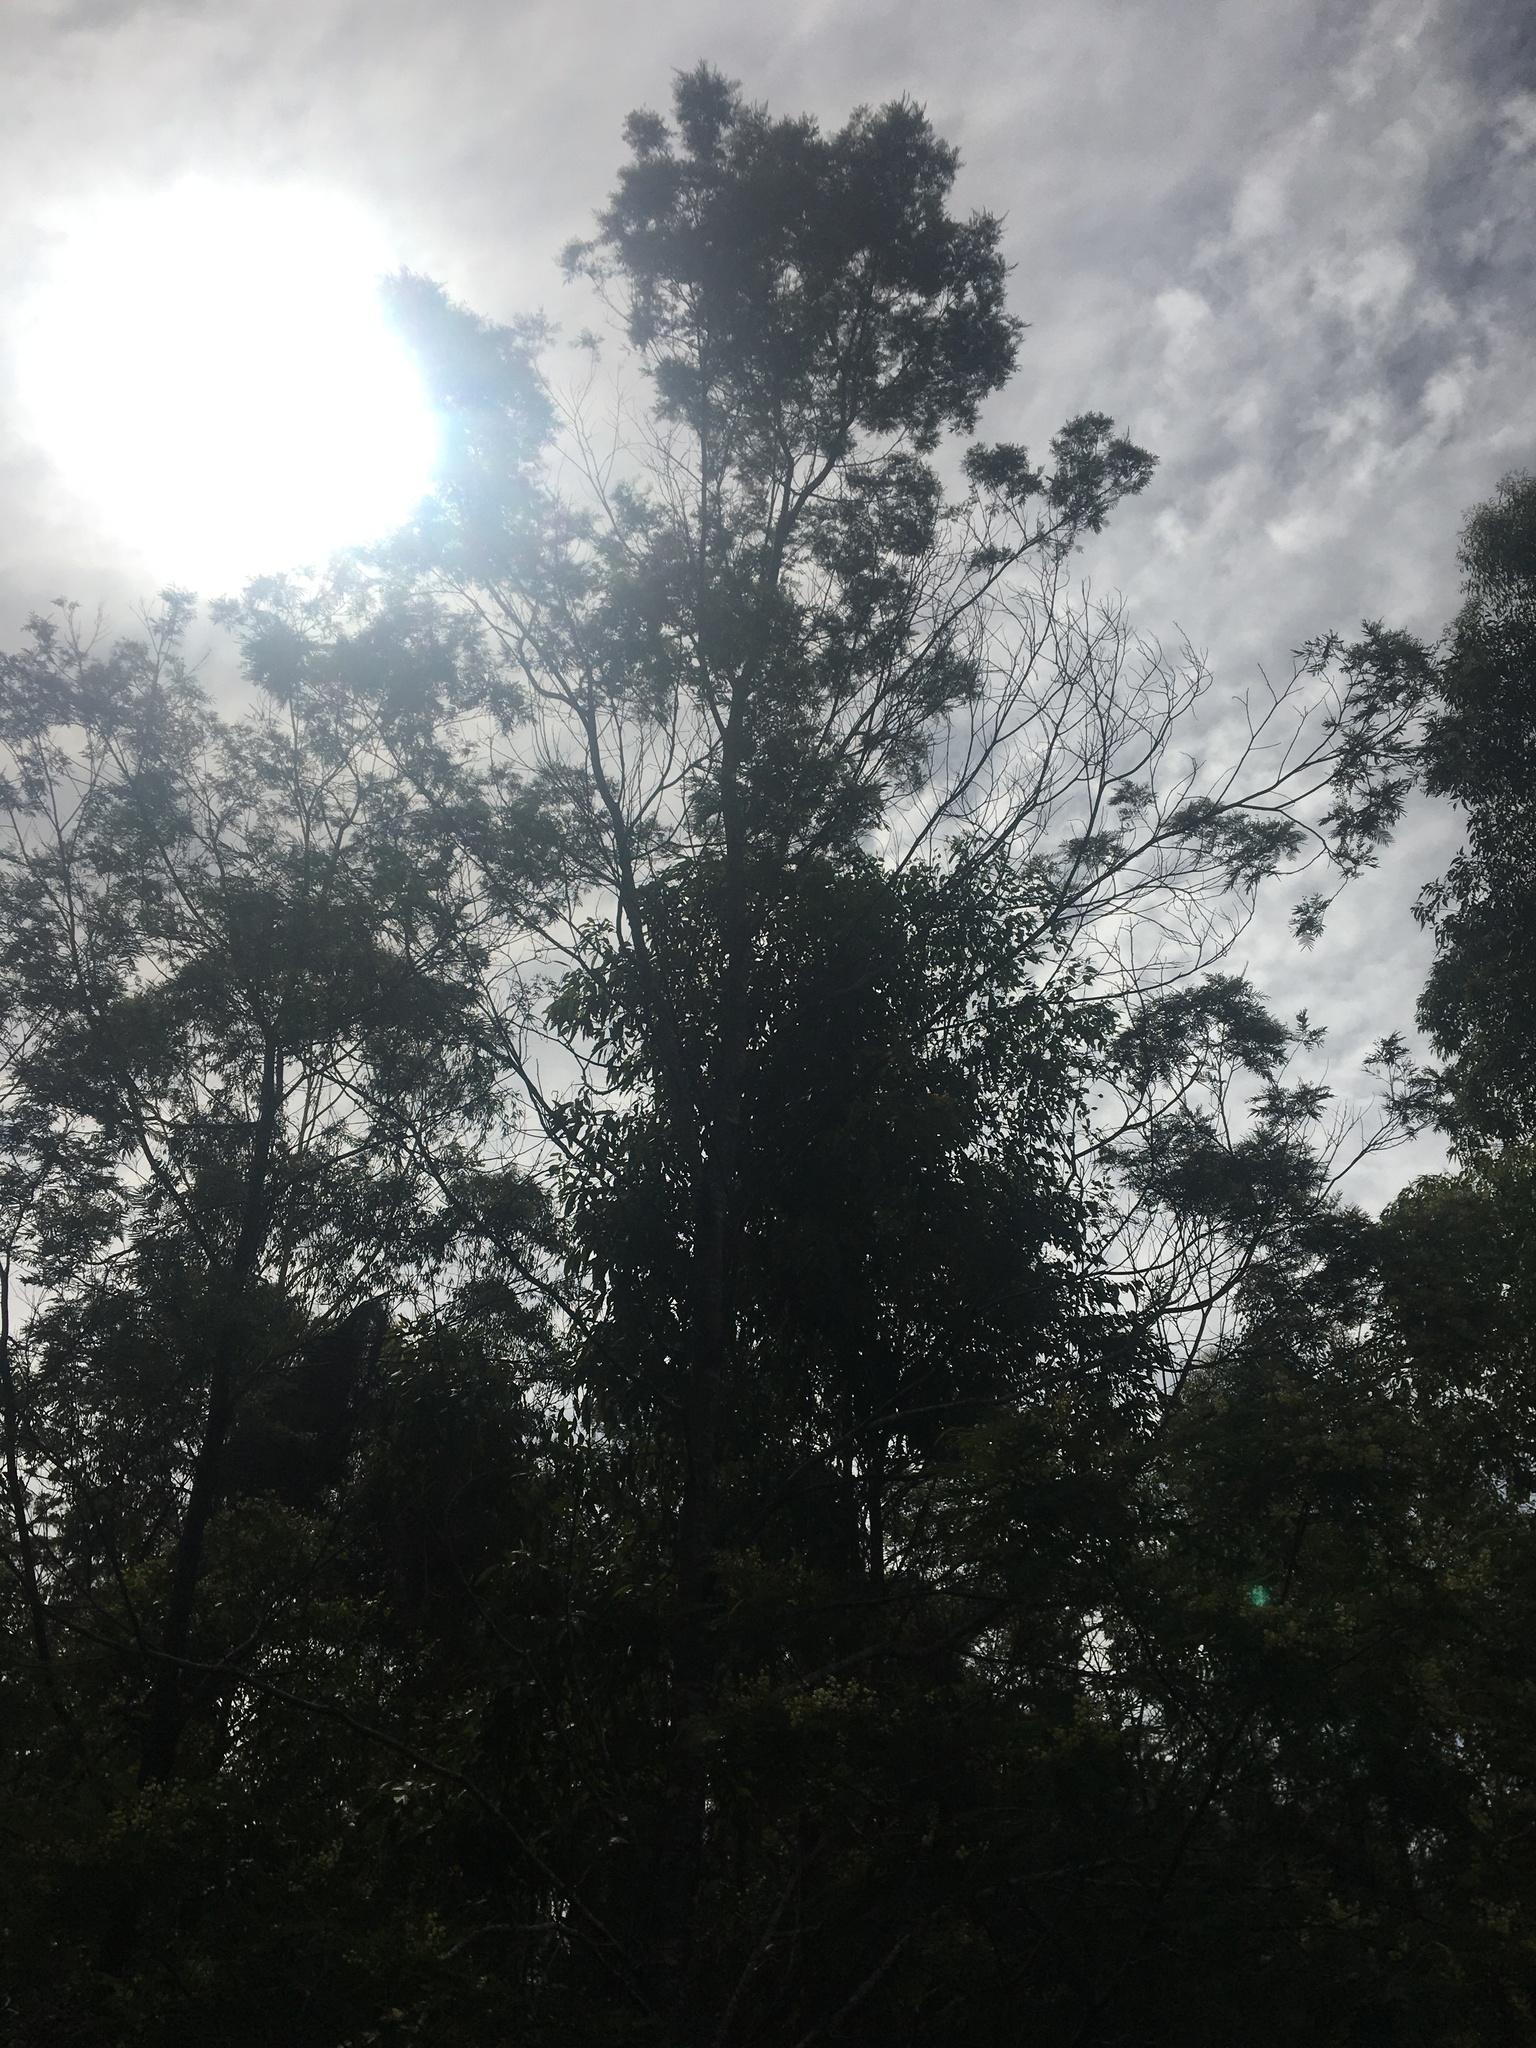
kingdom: Plantae
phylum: Tracheophyta
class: Magnoliopsida
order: Fabales
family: Fabaceae
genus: Acacia
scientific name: Acacia irrorata
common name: Green wattle
